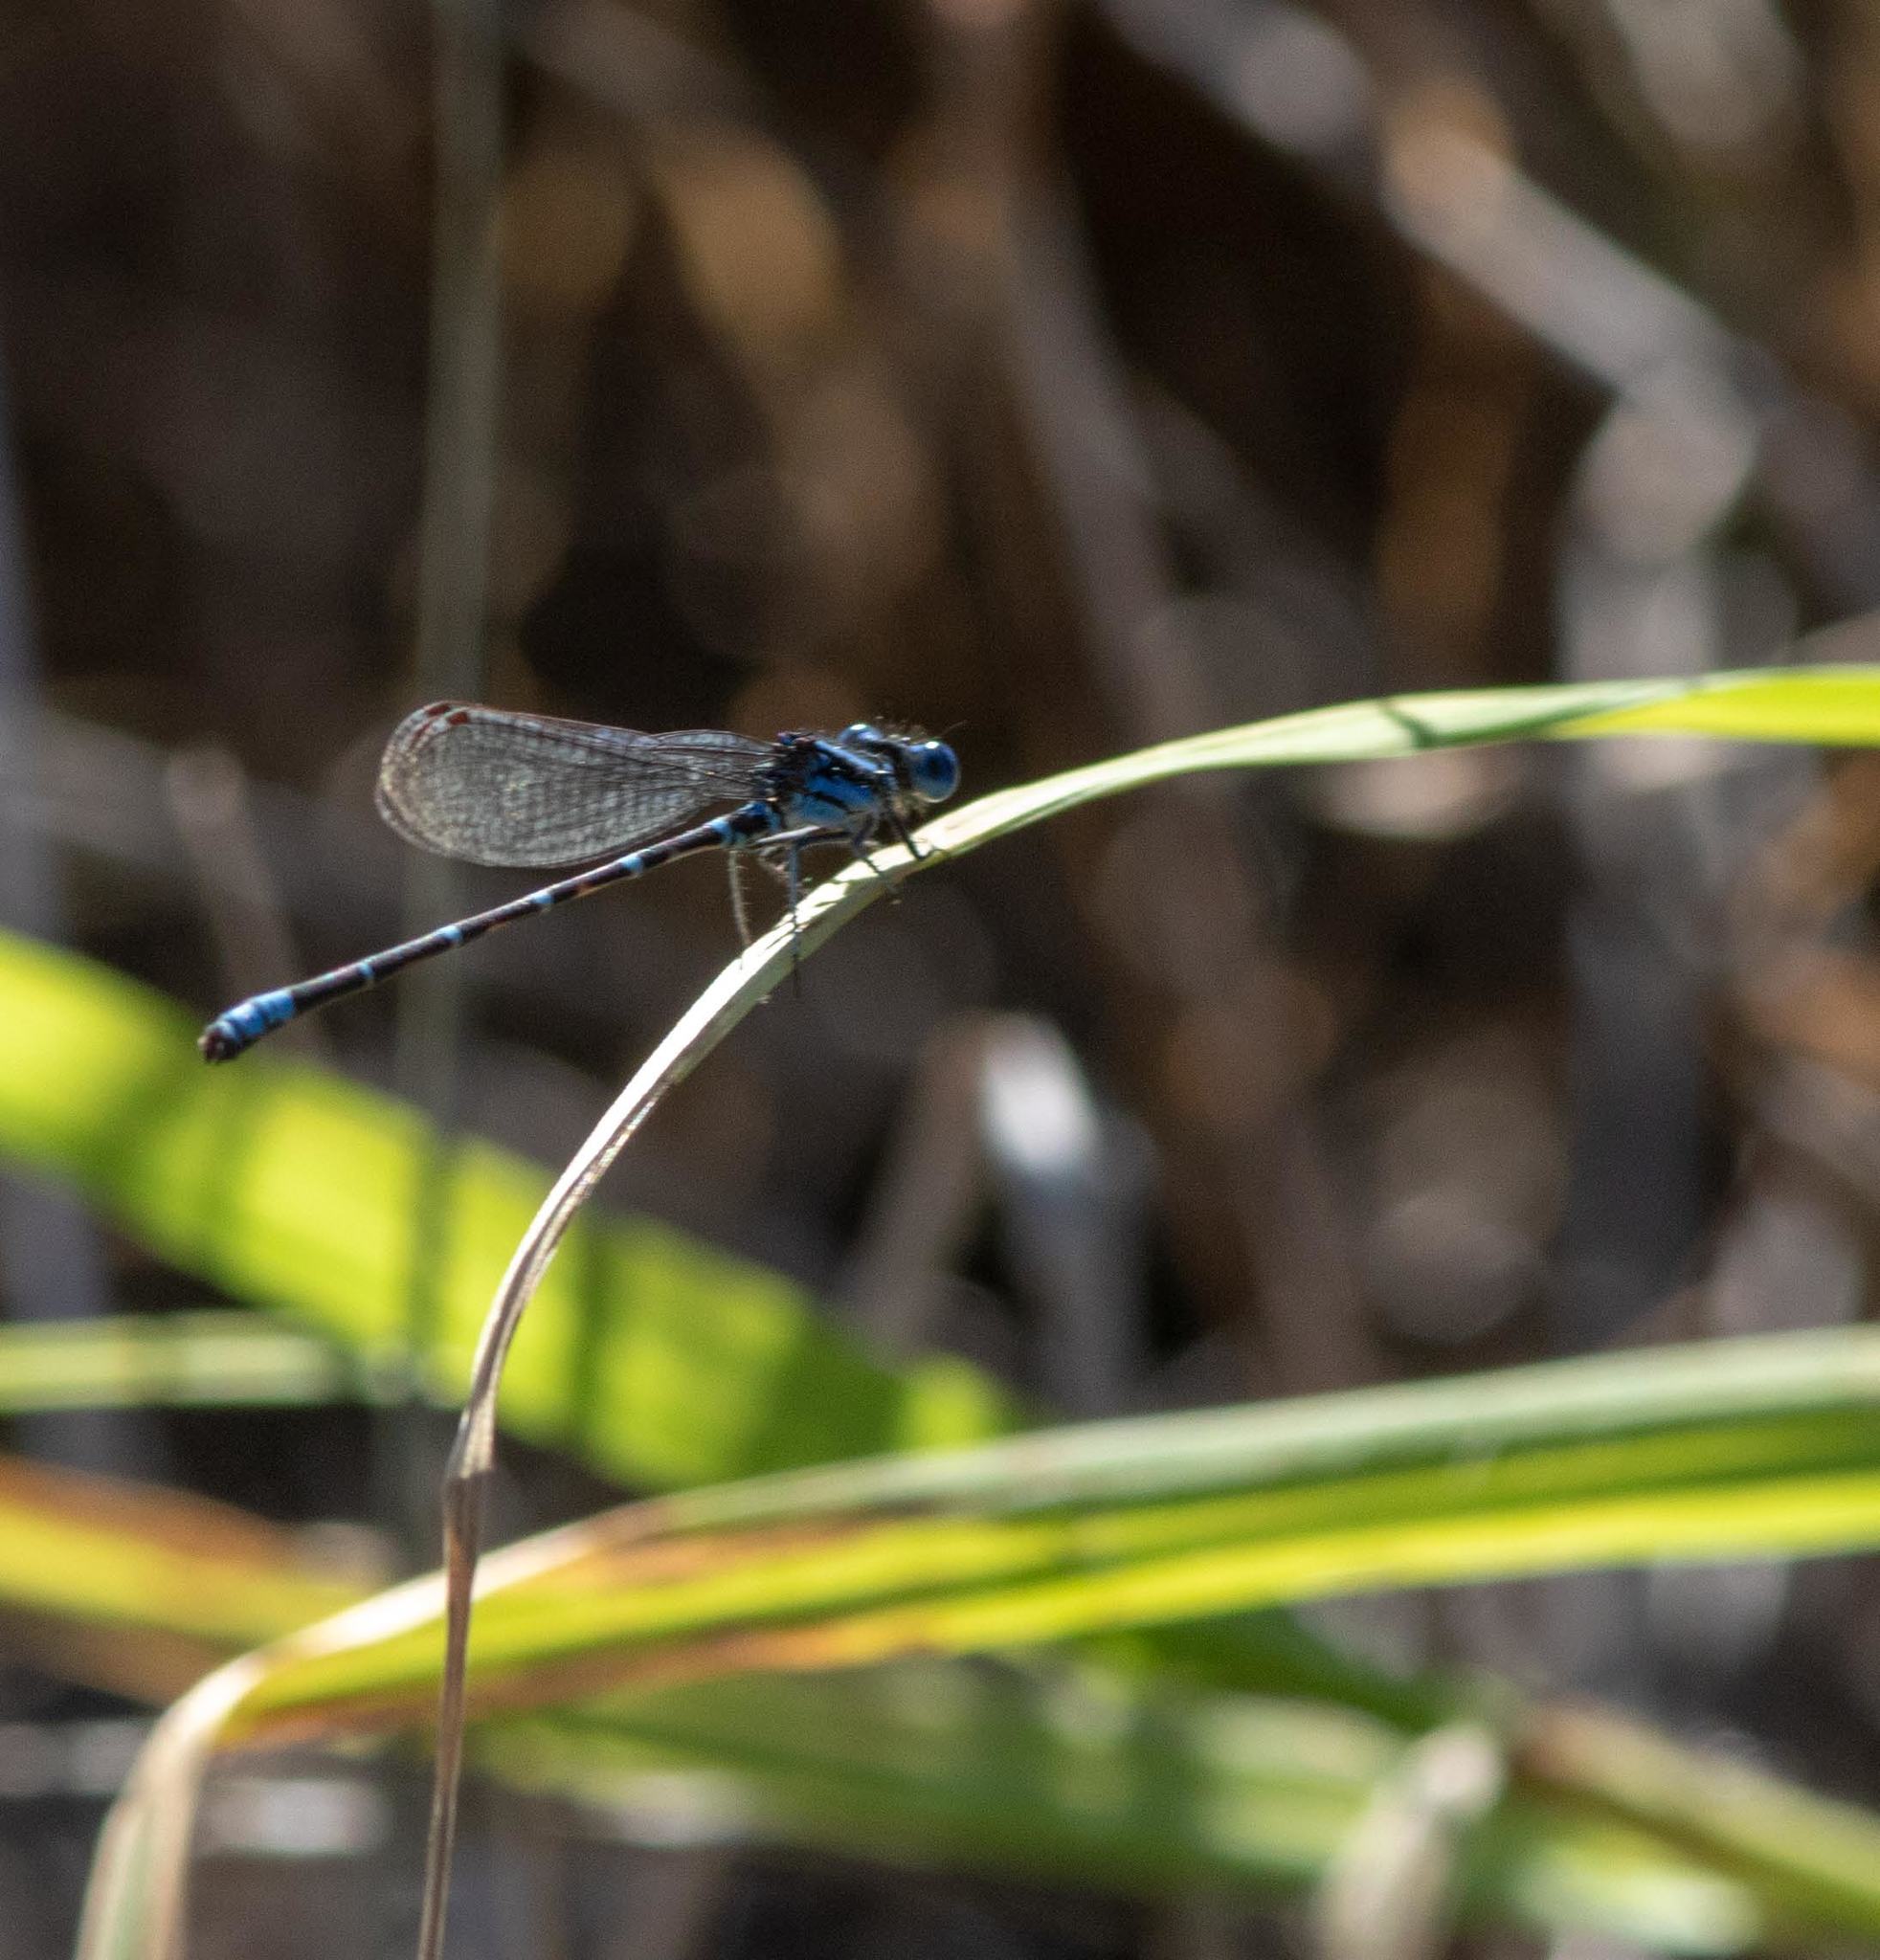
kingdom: Animalia
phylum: Arthropoda
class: Insecta
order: Odonata
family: Coenagrionidae
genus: Argia
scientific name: Argia sedula
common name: Blue-ringed dancer
